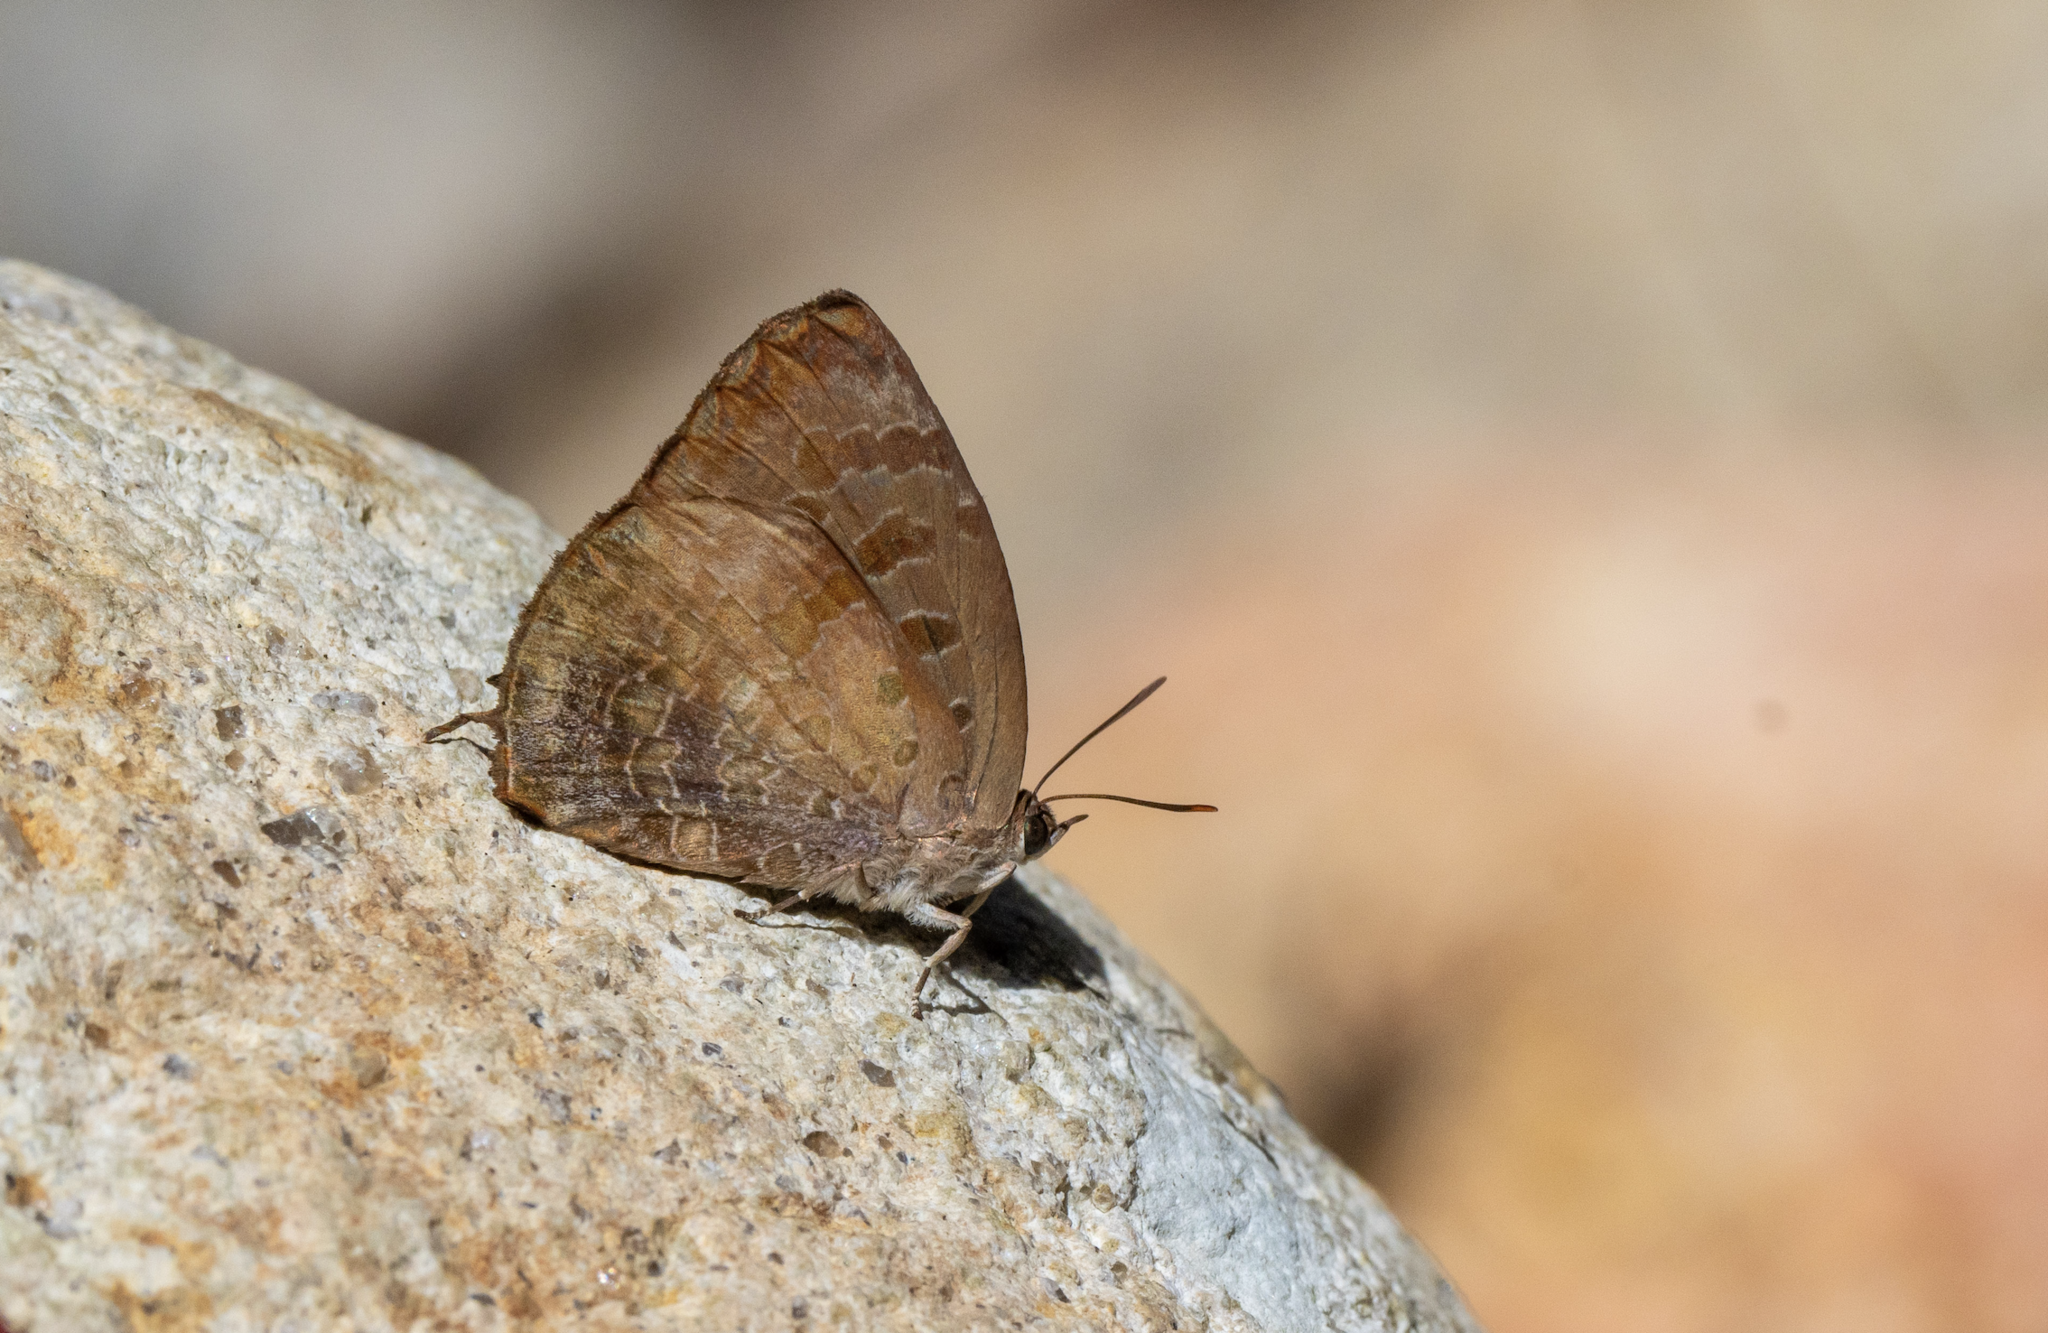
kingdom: Animalia
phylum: Arthropoda
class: Insecta
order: Lepidoptera
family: Lycaenidae
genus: Arhopala
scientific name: Arhopala bazalus
